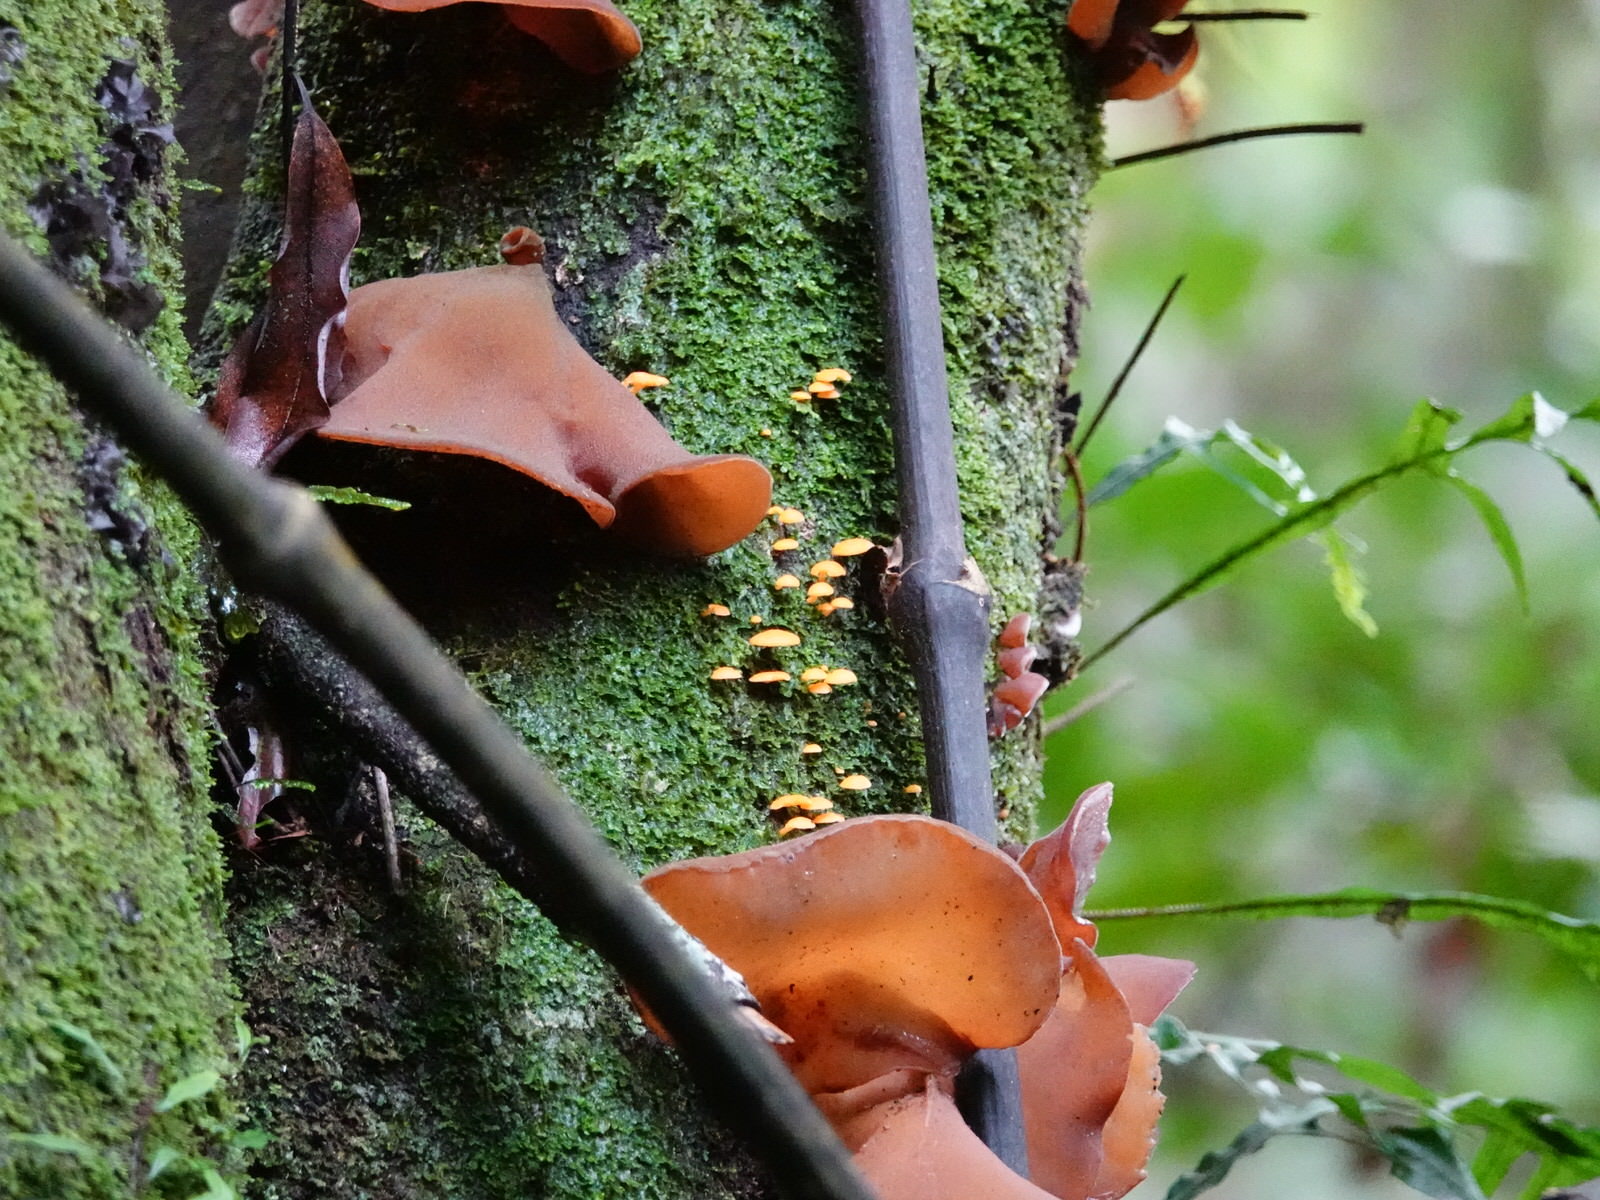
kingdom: Fungi
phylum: Basidiomycota
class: Agaricomycetes
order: Auriculariales
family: Auriculariaceae
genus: Auricularia
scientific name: Auricularia cornea
